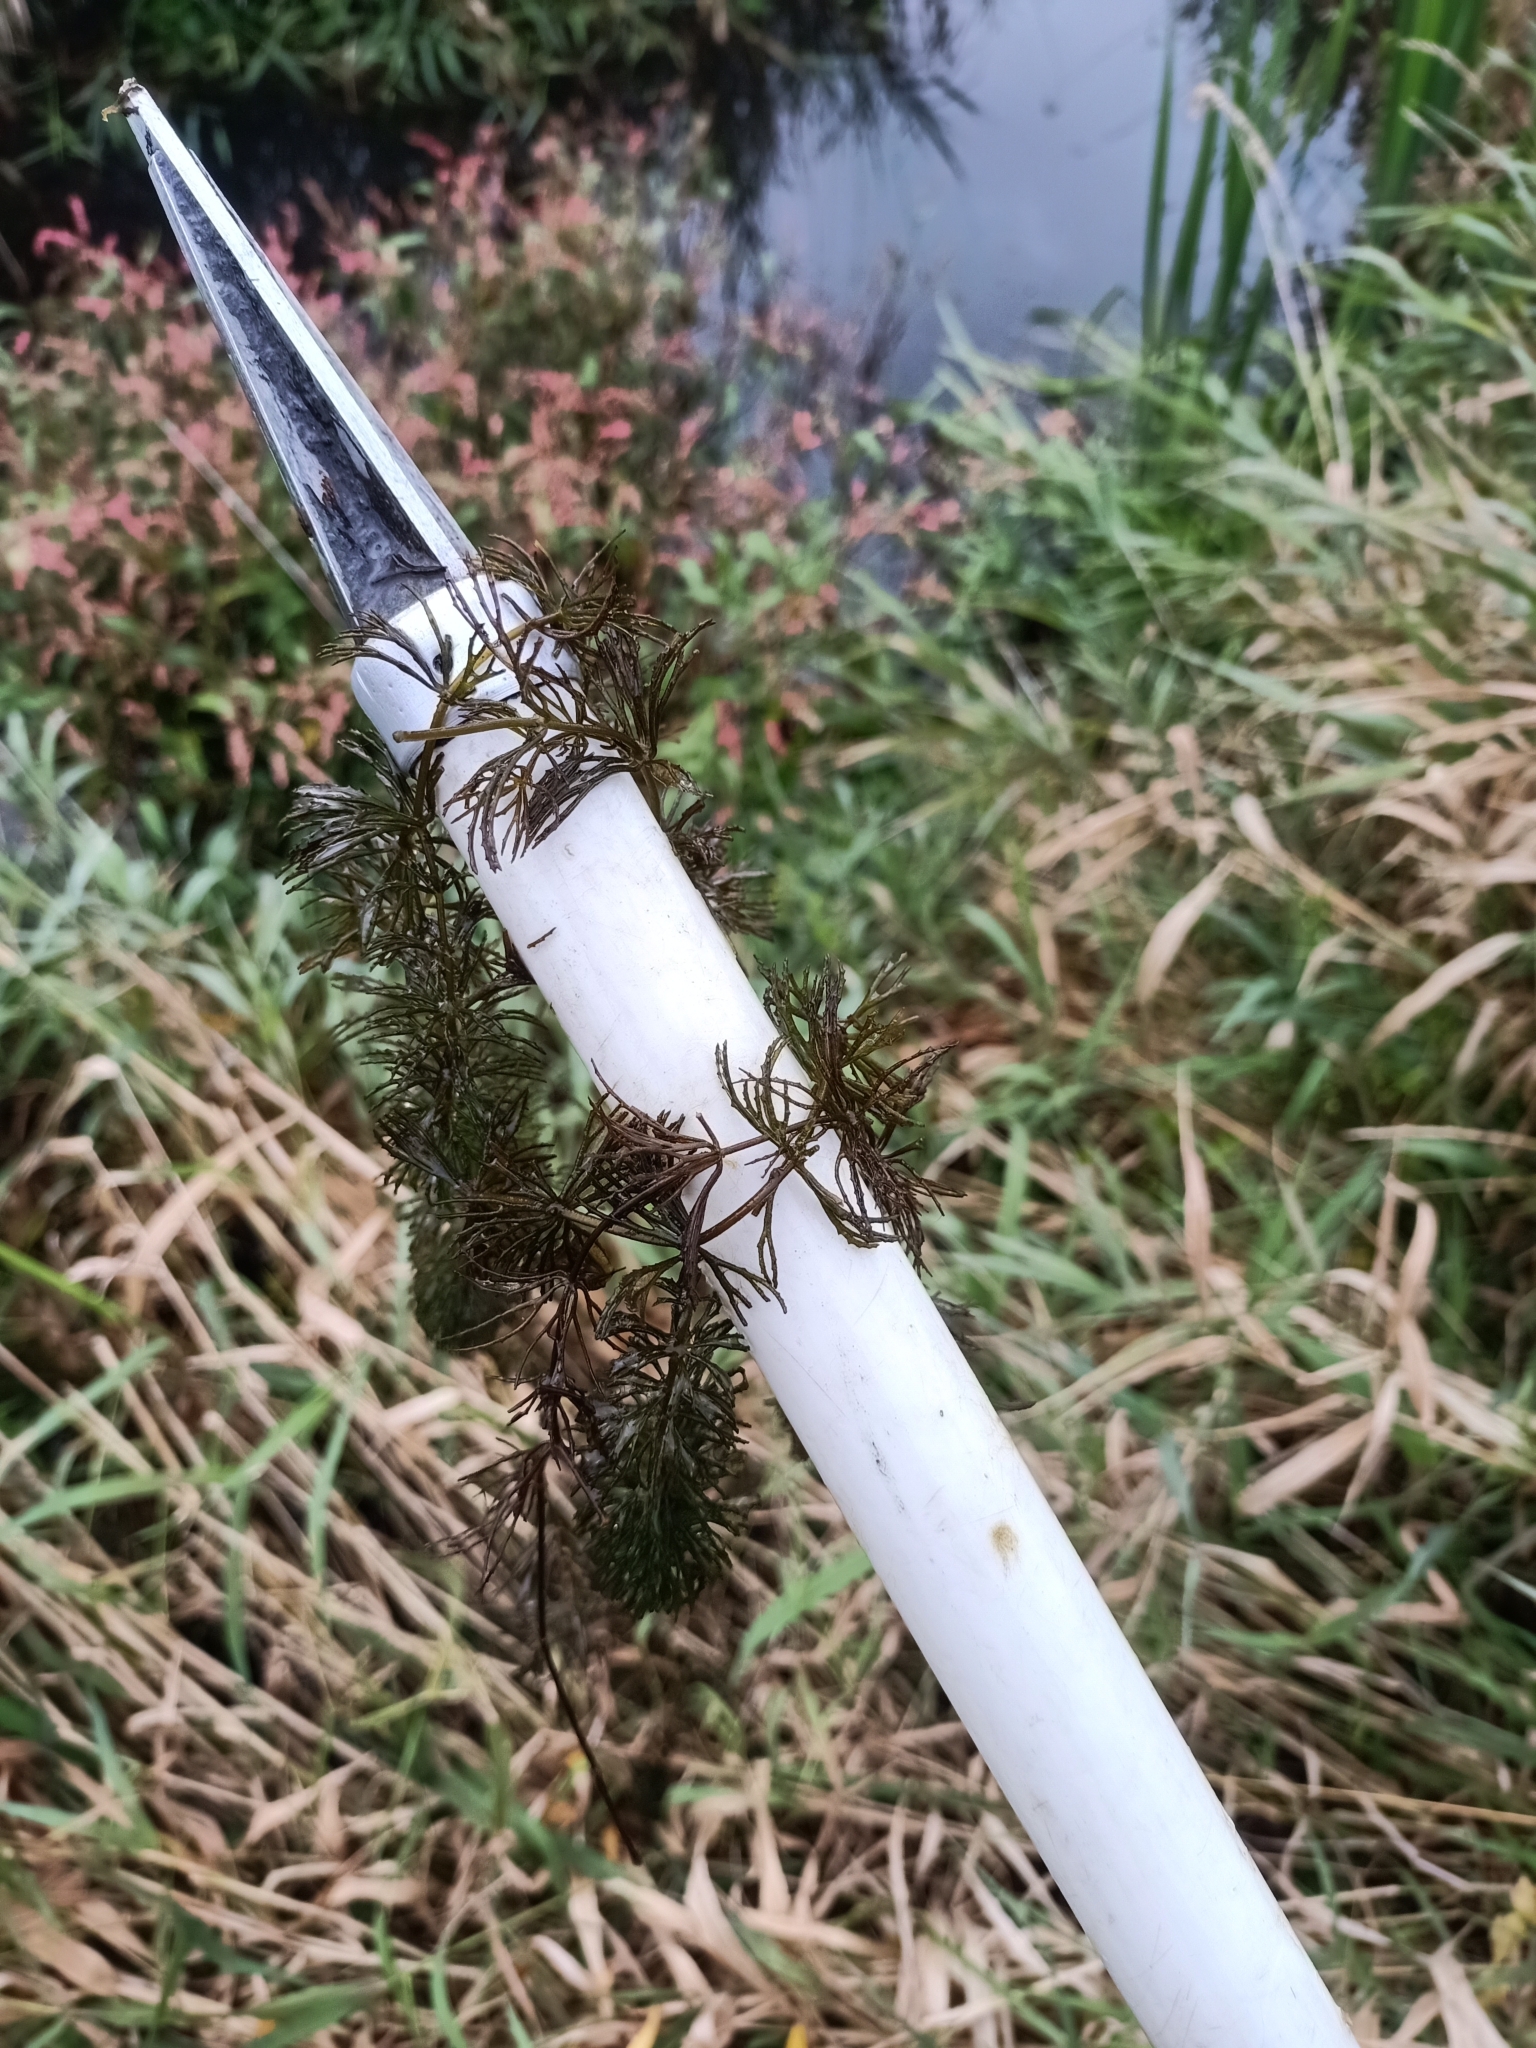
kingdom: Plantae
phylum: Tracheophyta
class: Magnoliopsida
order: Ceratophyllales
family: Ceratophyllaceae
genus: Ceratophyllum
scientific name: Ceratophyllum demersum
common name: Rigid hornwort
